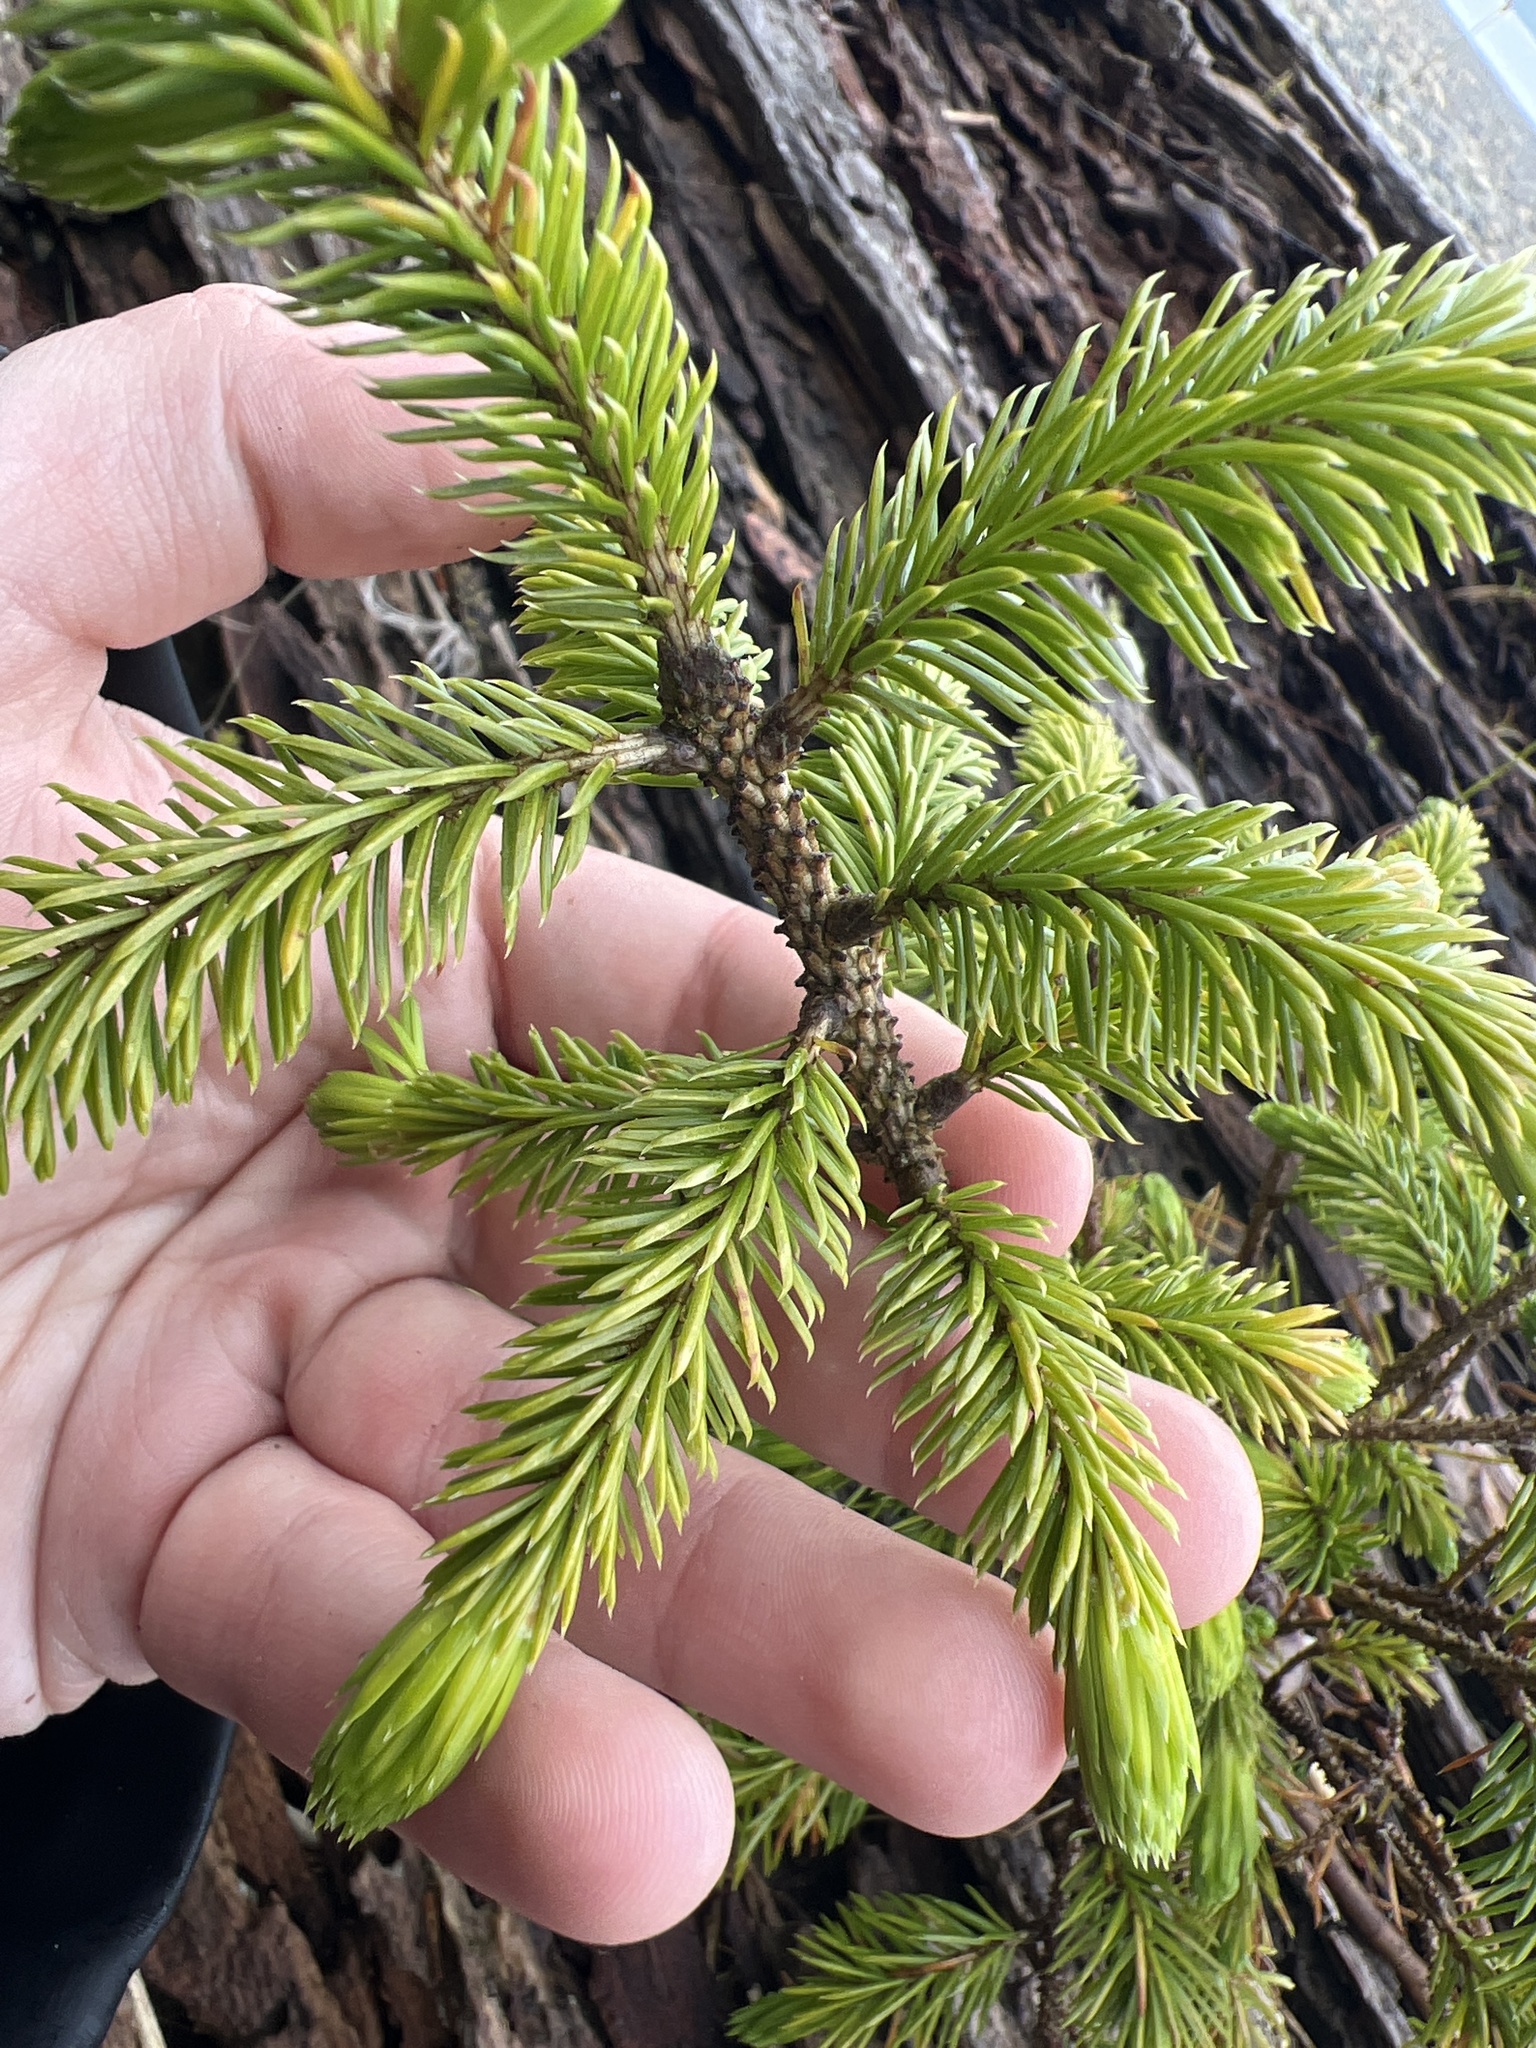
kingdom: Plantae
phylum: Tracheophyta
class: Pinopsida
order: Pinales
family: Pinaceae
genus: Picea
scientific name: Picea sitchensis
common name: Sitka spruce
